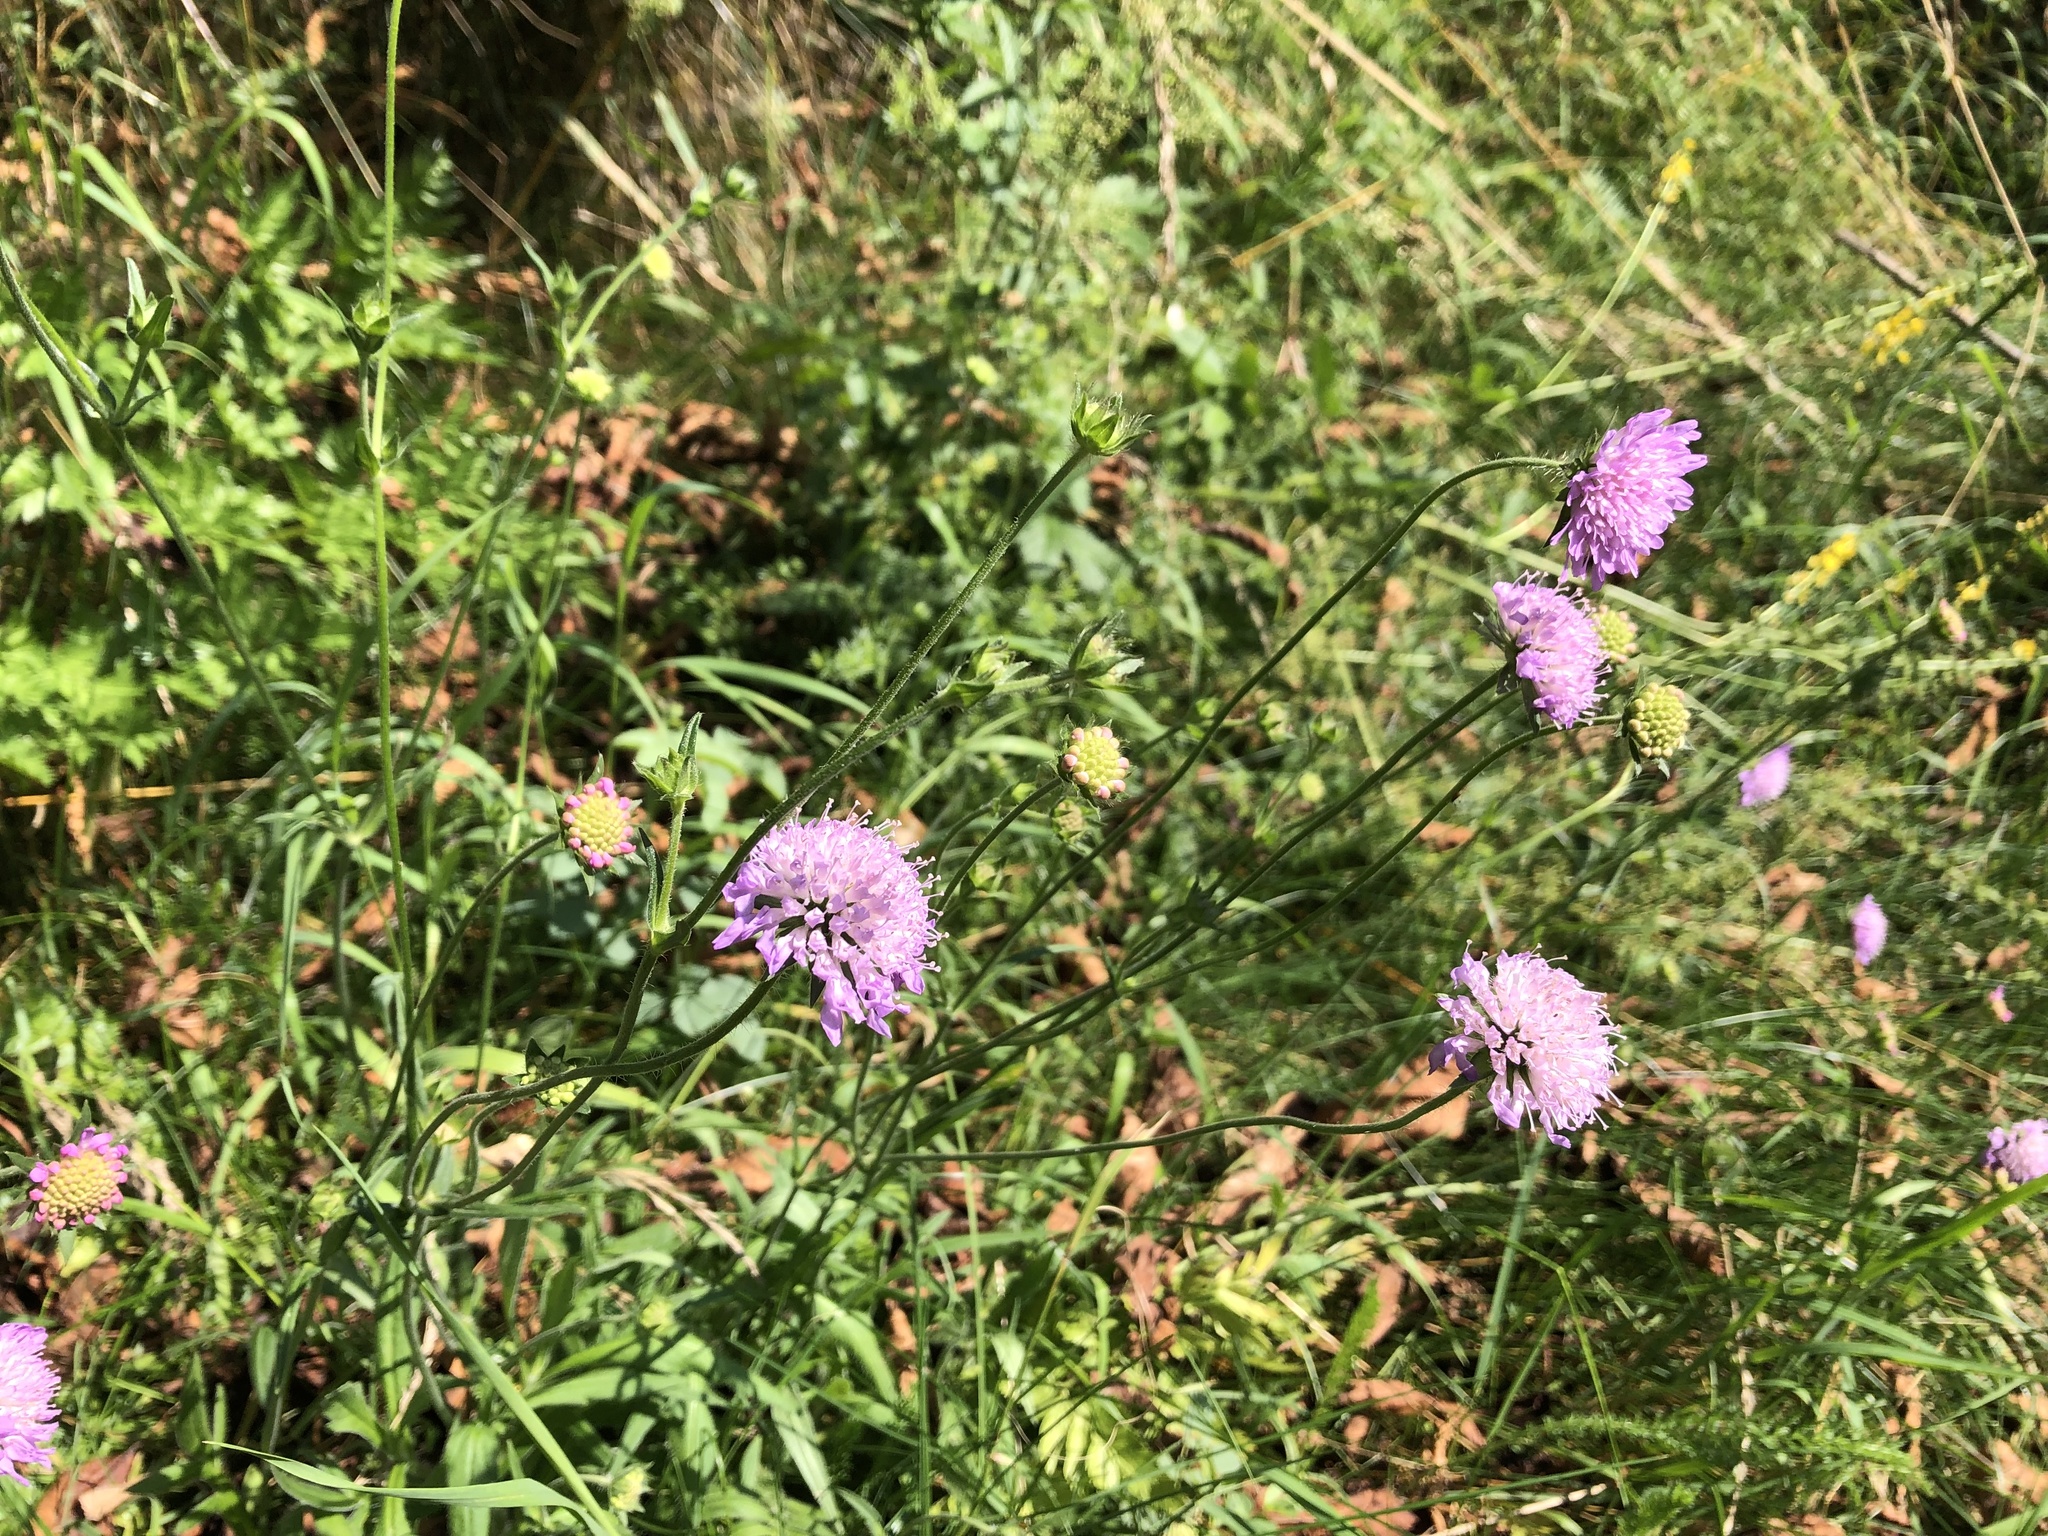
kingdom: Plantae
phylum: Tracheophyta
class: Magnoliopsida
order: Dipsacales
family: Caprifoliaceae
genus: Knautia
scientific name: Knautia arvensis
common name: Field scabiosa
